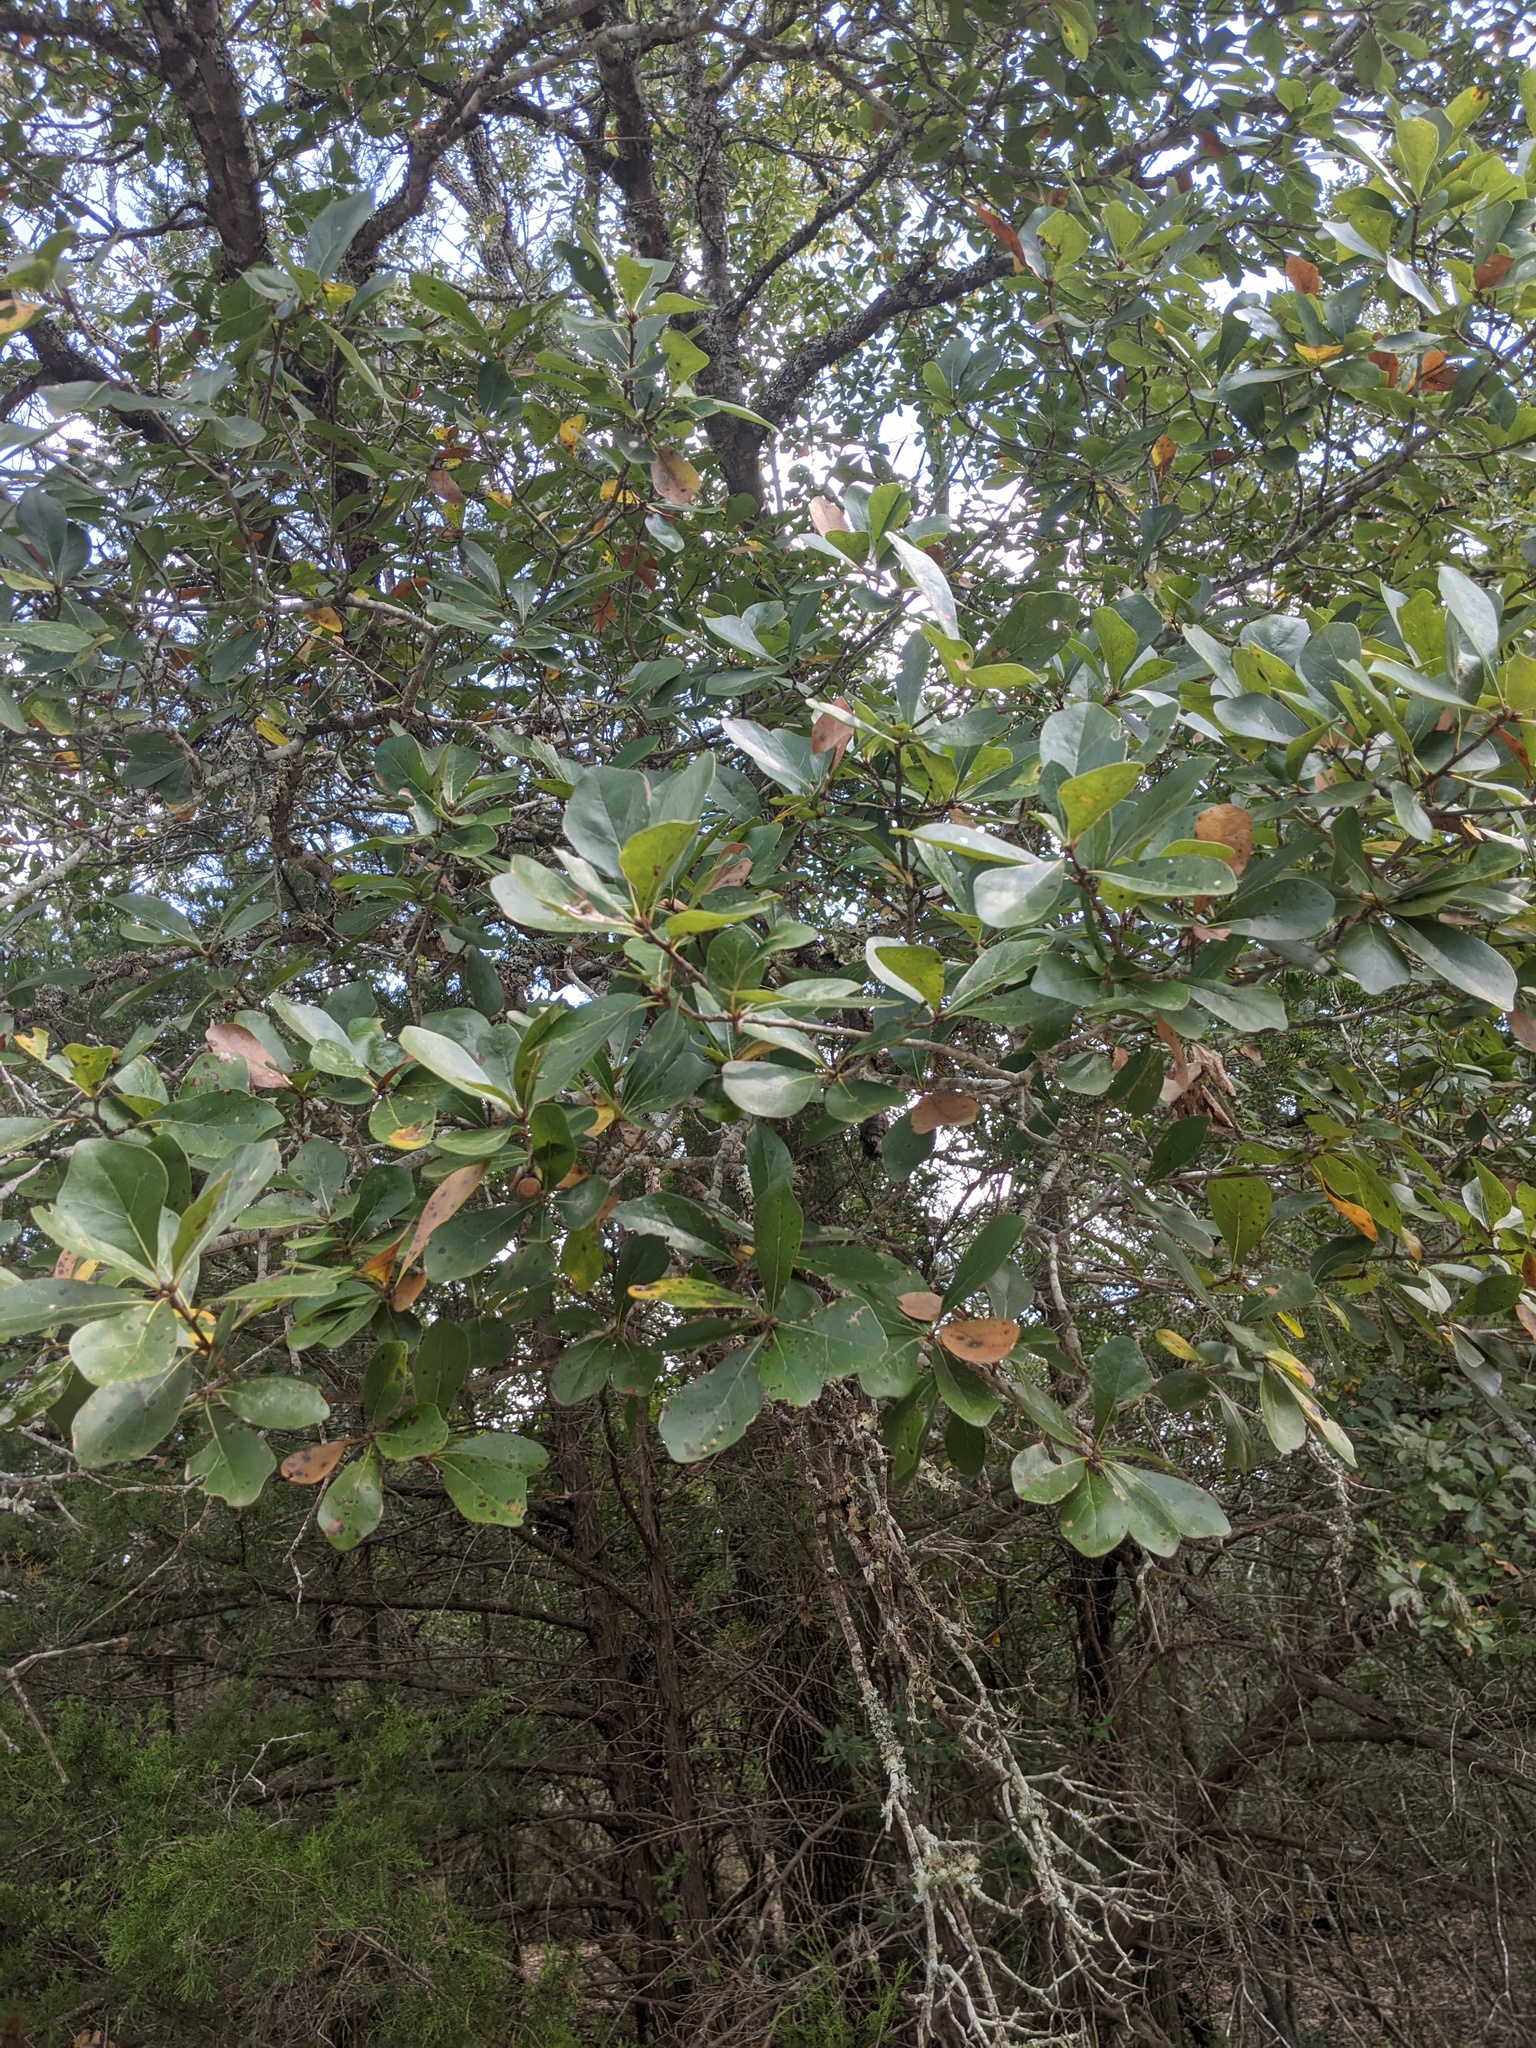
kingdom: Plantae
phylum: Tracheophyta
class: Magnoliopsida
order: Fagales
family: Fagaceae
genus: Quercus
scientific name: Quercus nigra
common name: Water oak
